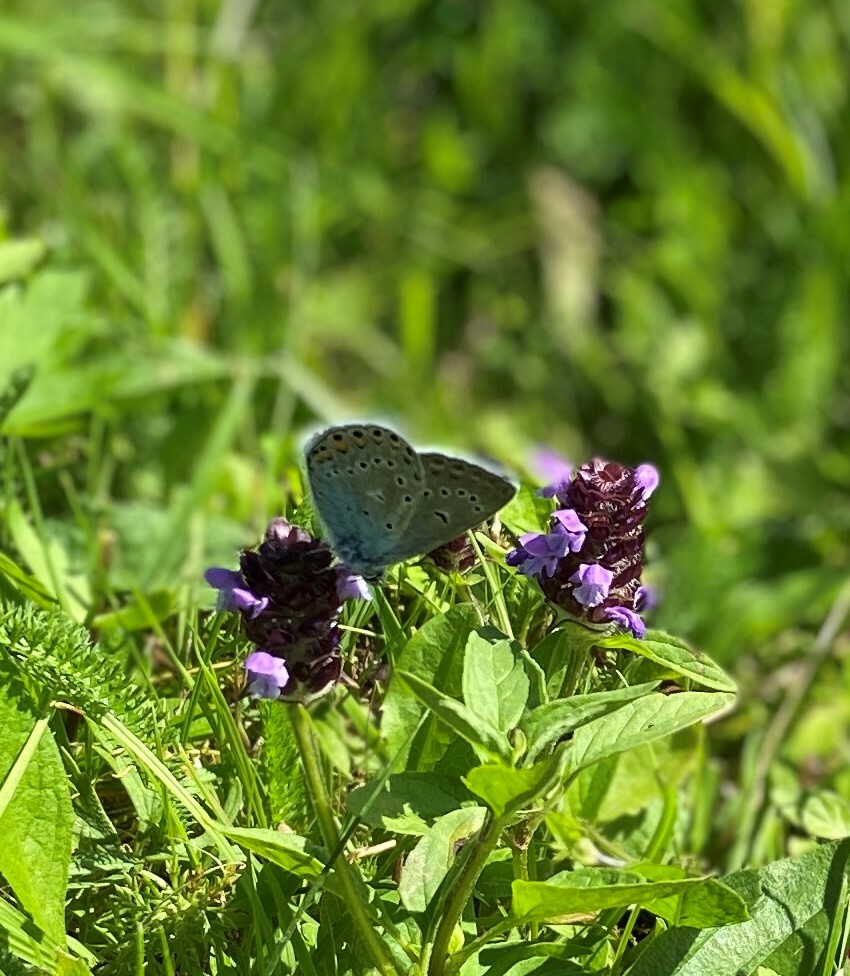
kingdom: Animalia
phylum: Arthropoda
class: Insecta
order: Lepidoptera
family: Lycaenidae
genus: Plebejus
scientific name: Plebejus amanda
